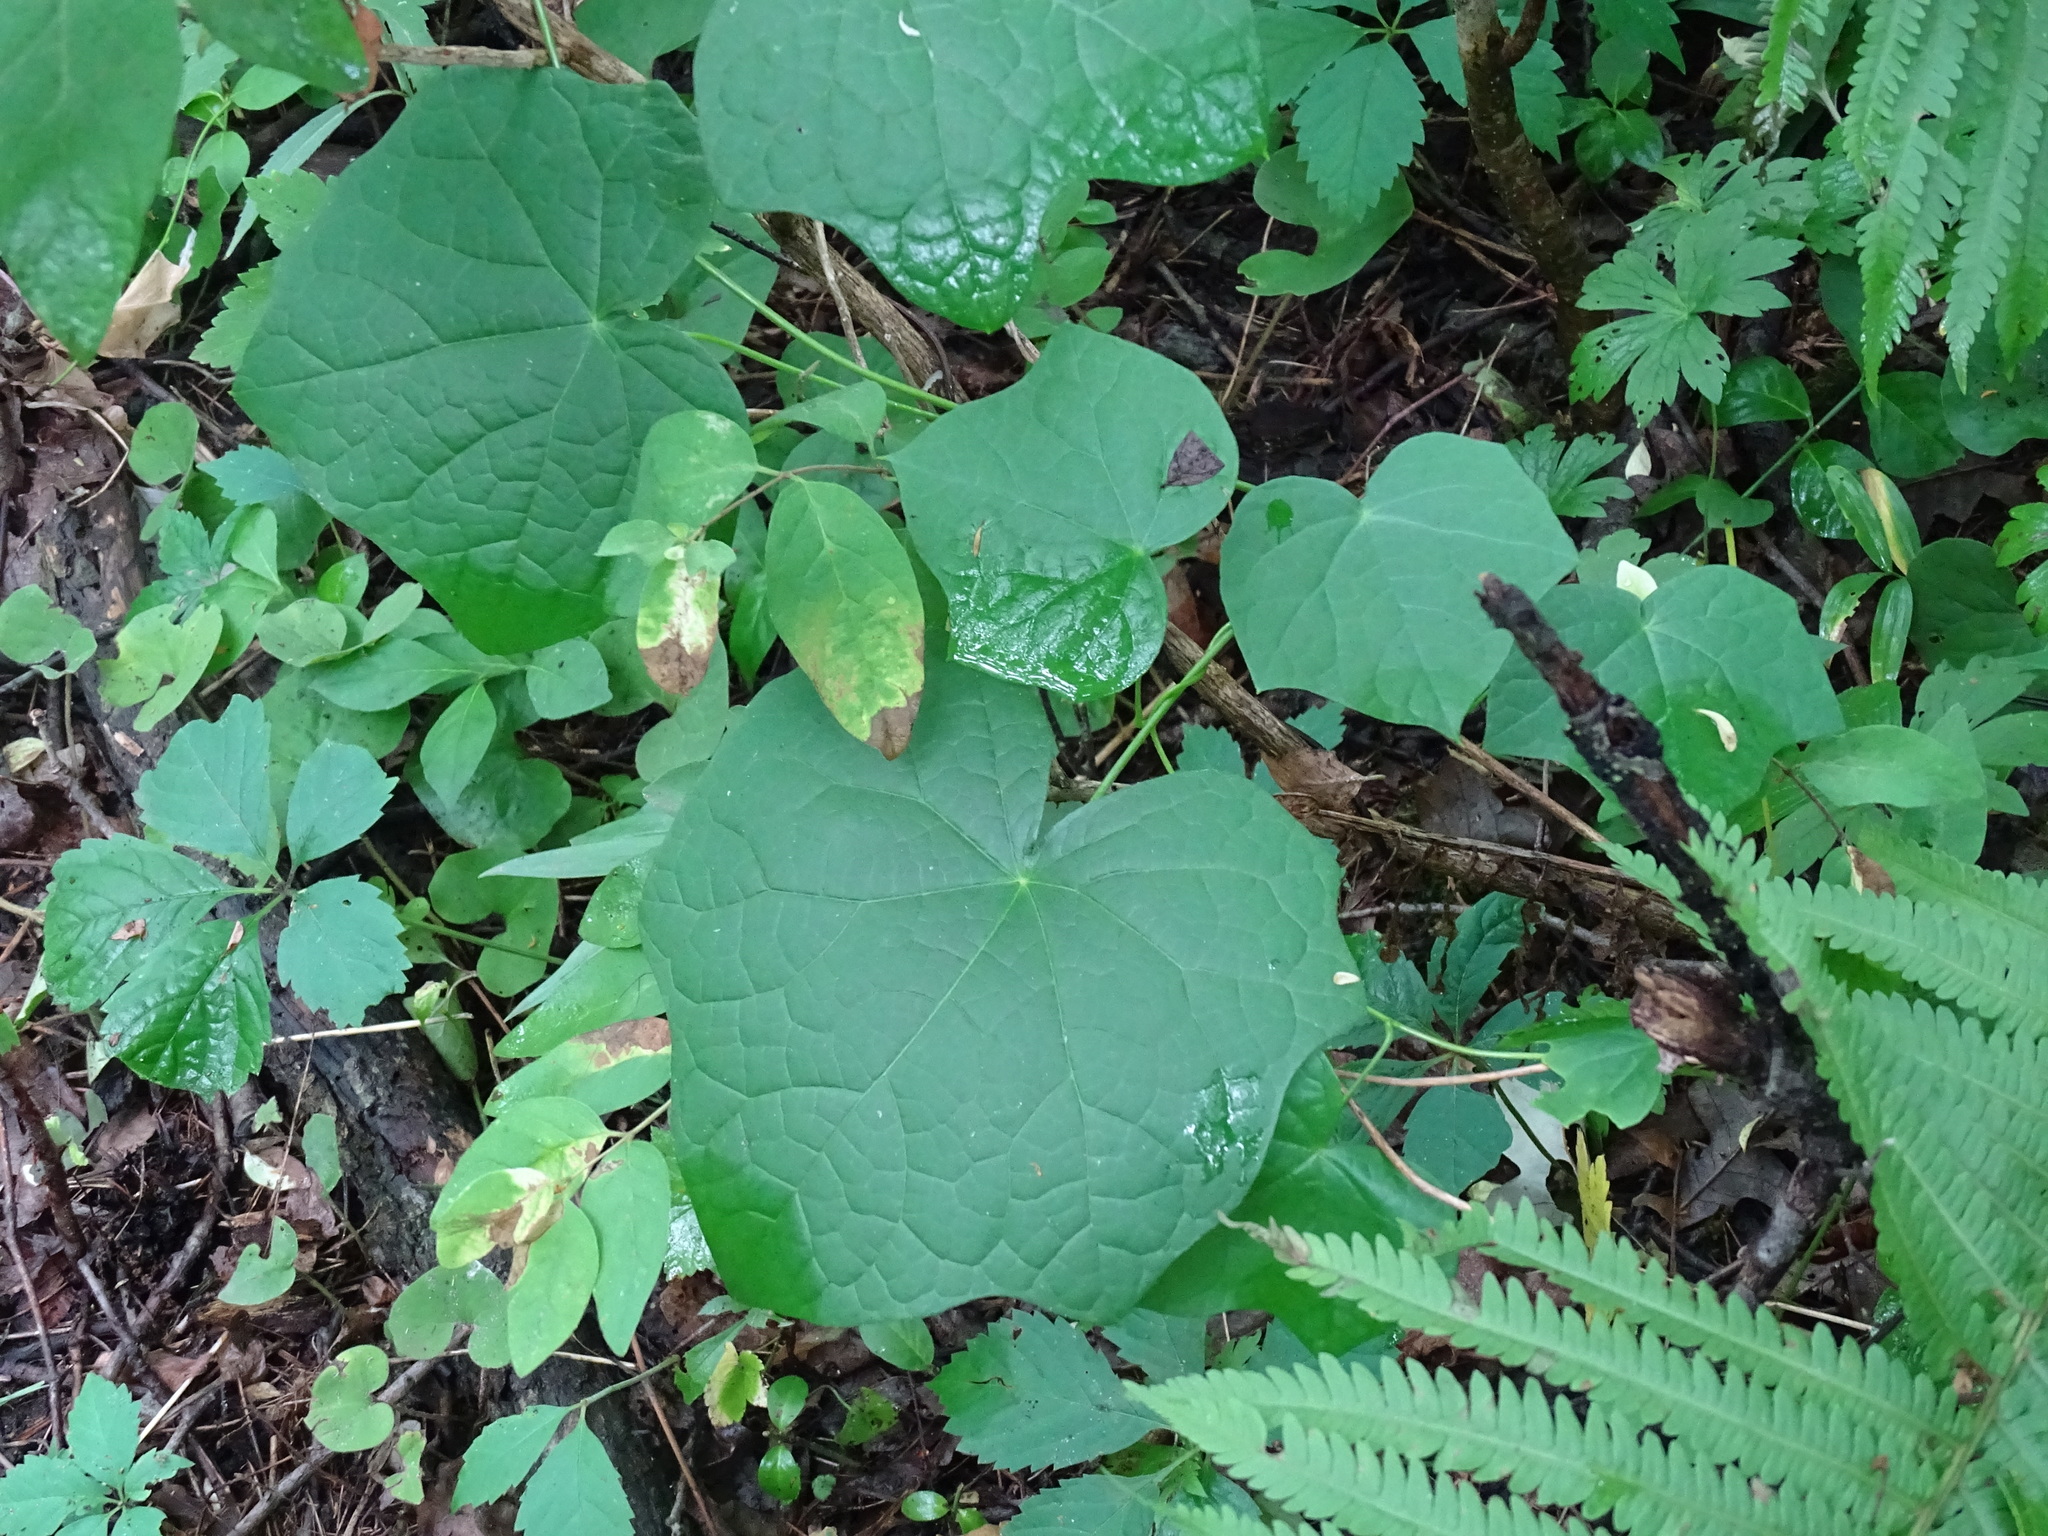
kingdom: Plantae
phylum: Tracheophyta
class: Magnoliopsida
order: Ranunculales
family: Menispermaceae
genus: Menispermum
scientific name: Menispermum canadense
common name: Moonseed
